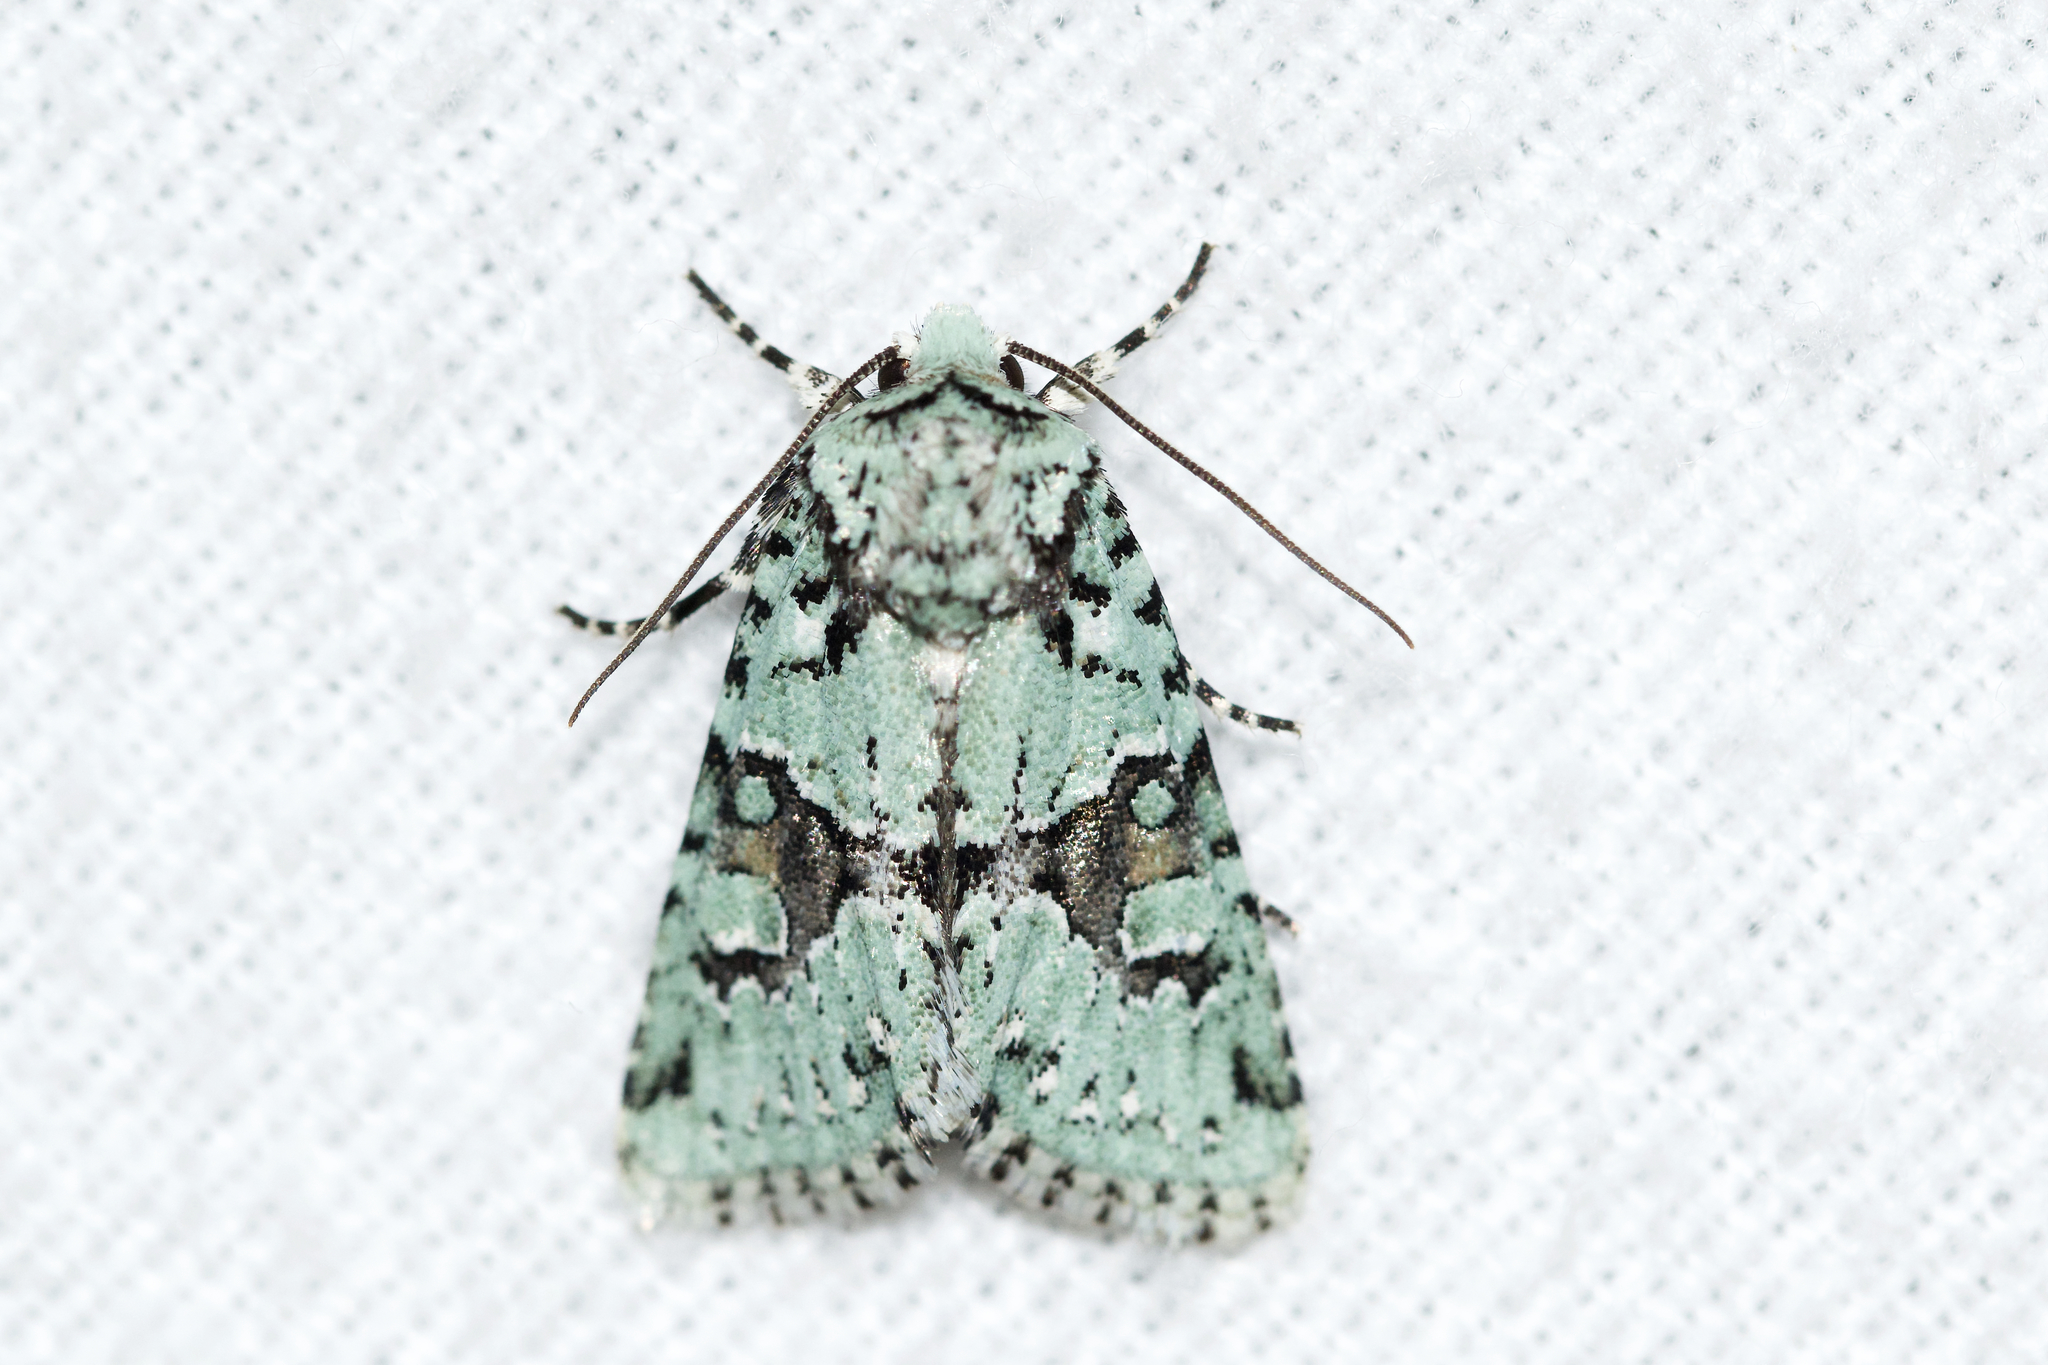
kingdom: Animalia
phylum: Arthropoda
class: Insecta
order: Lepidoptera
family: Noctuidae
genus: Lacinipolia
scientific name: Lacinipolia implicata
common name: Implicit arches
